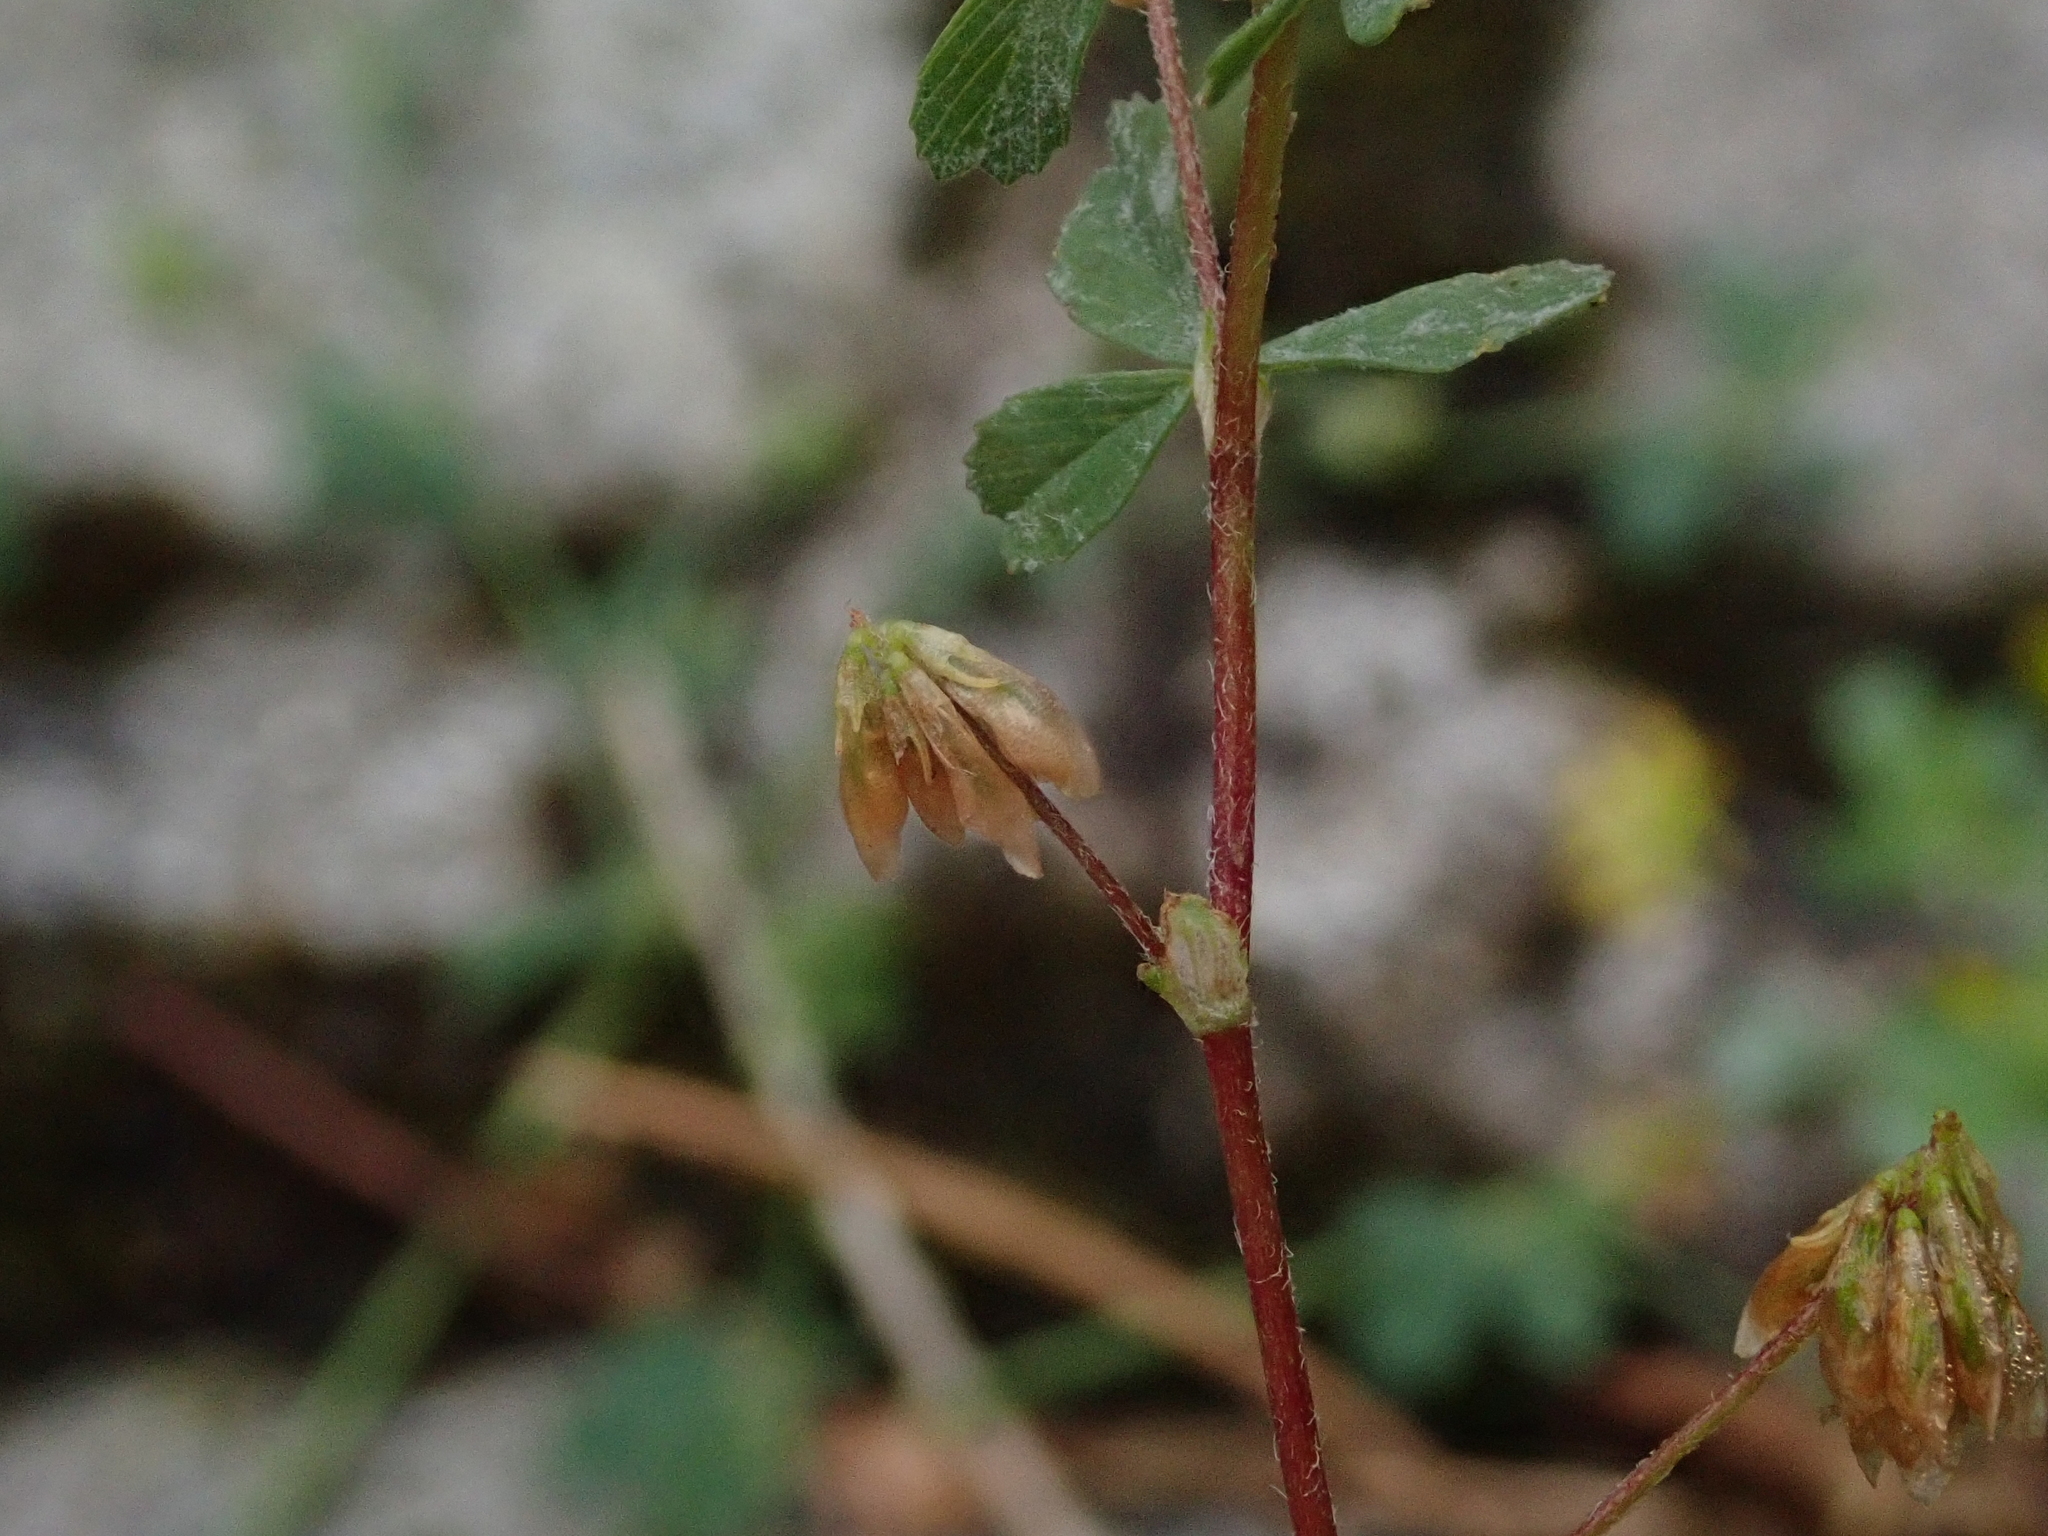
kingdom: Plantae
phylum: Tracheophyta
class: Magnoliopsida
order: Fabales
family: Fabaceae
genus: Trifolium
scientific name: Trifolium dubium
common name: Suckling clover
